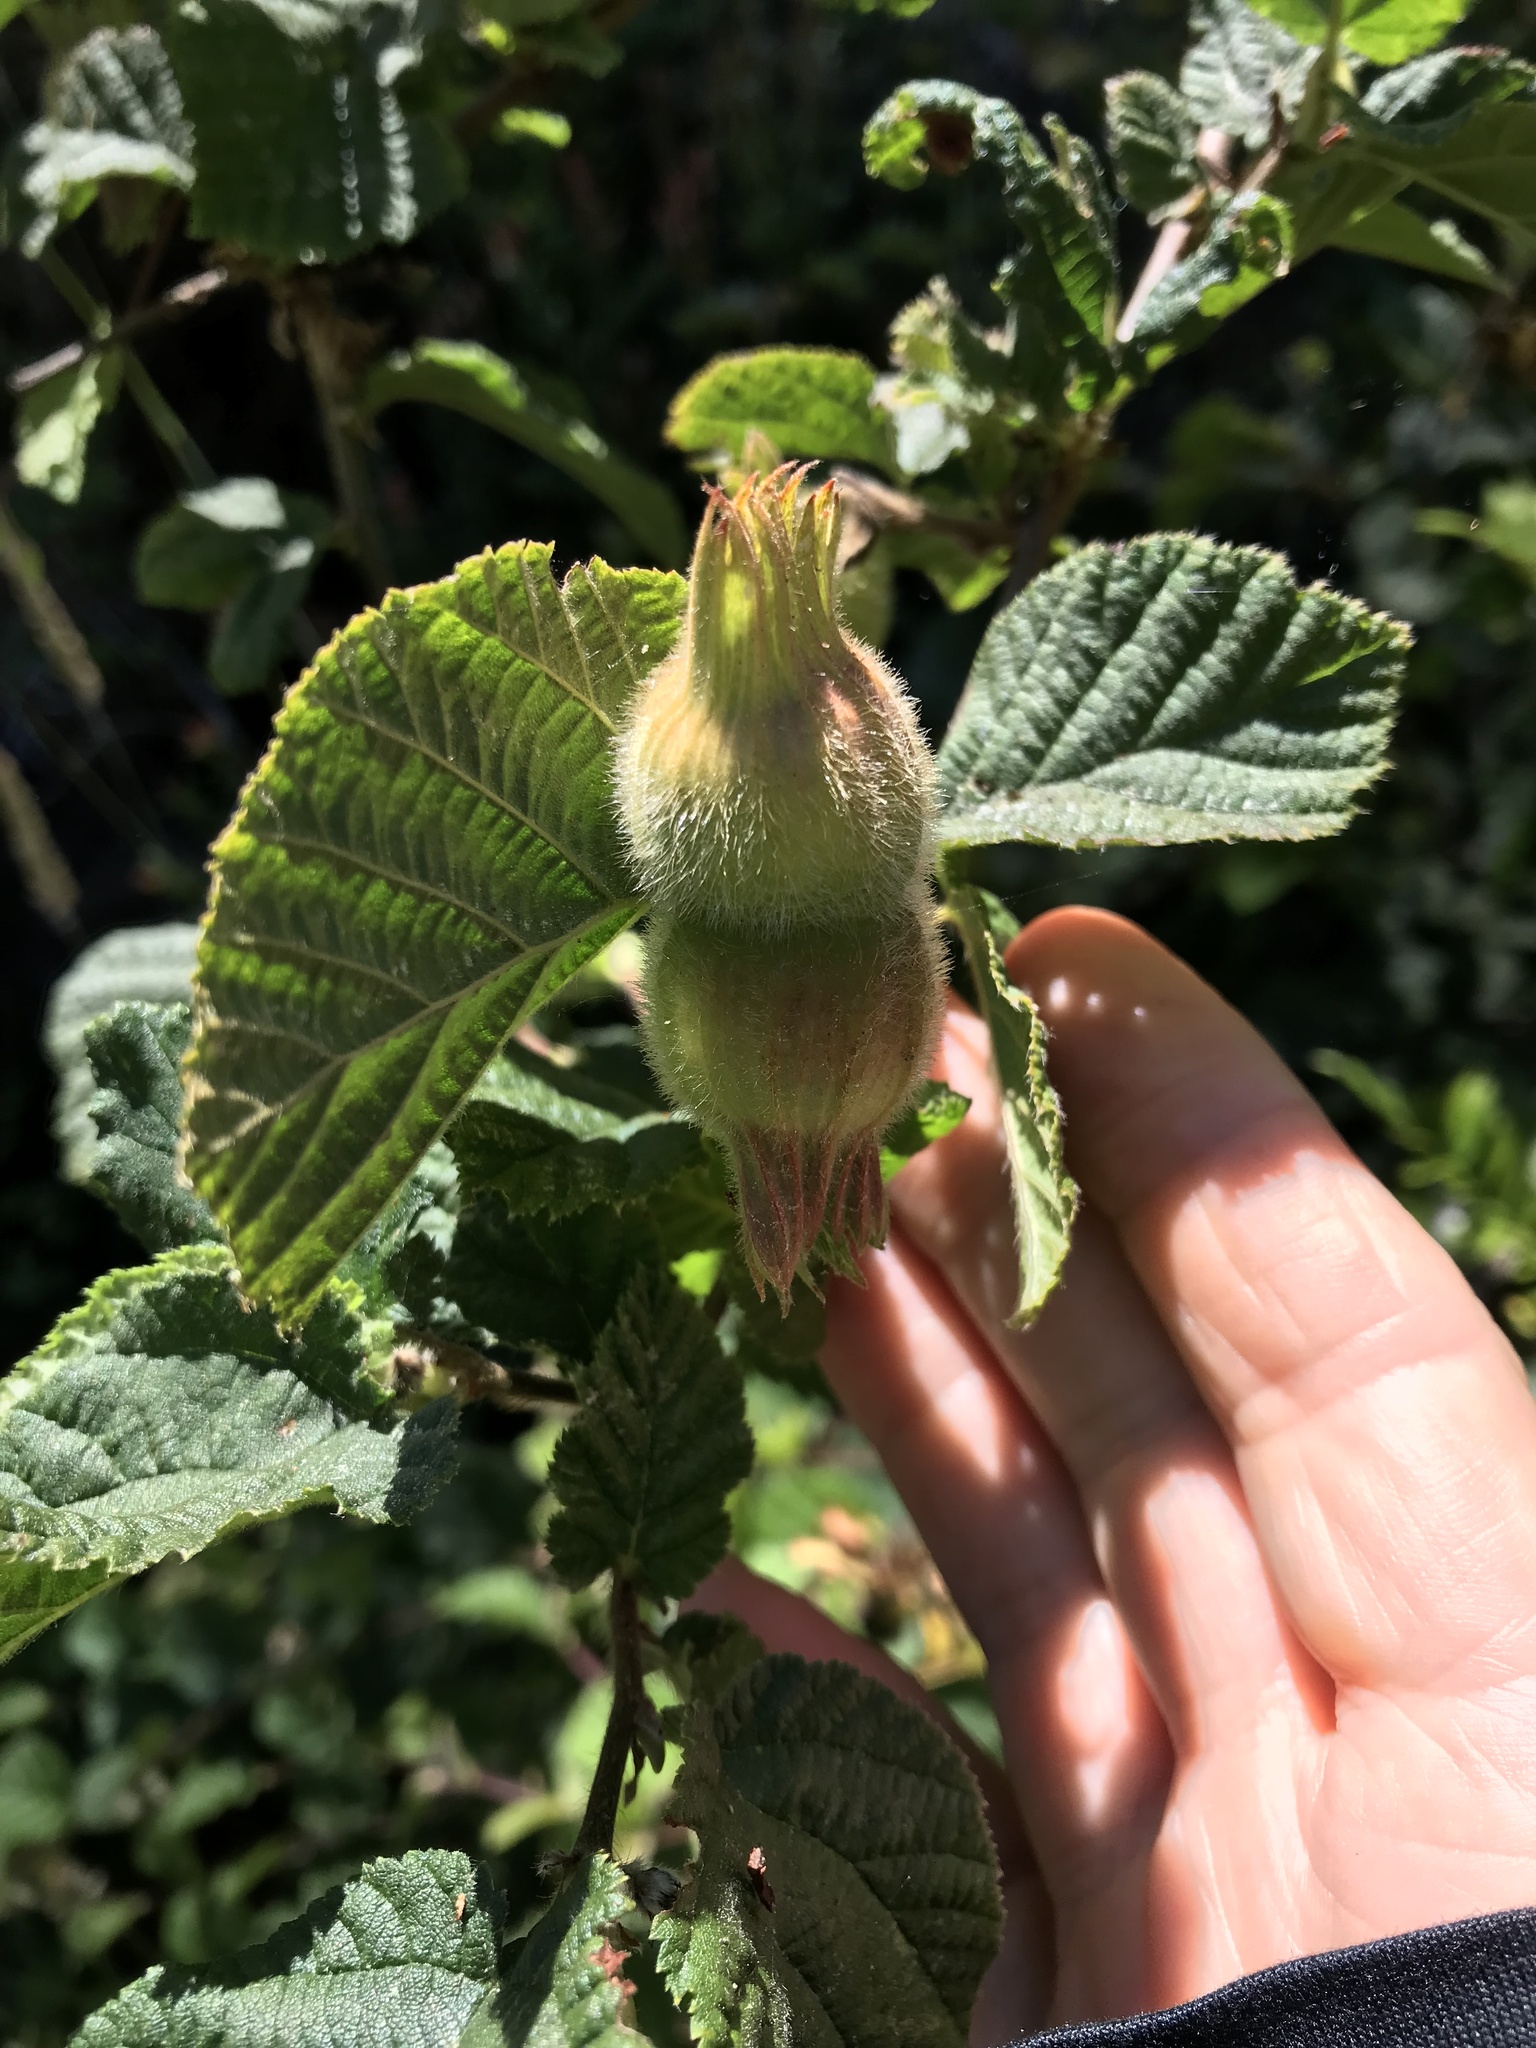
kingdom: Plantae
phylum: Tracheophyta
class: Magnoliopsida
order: Fagales
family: Betulaceae
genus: Corylus
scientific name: Corylus cornuta
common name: Beaked hazel
